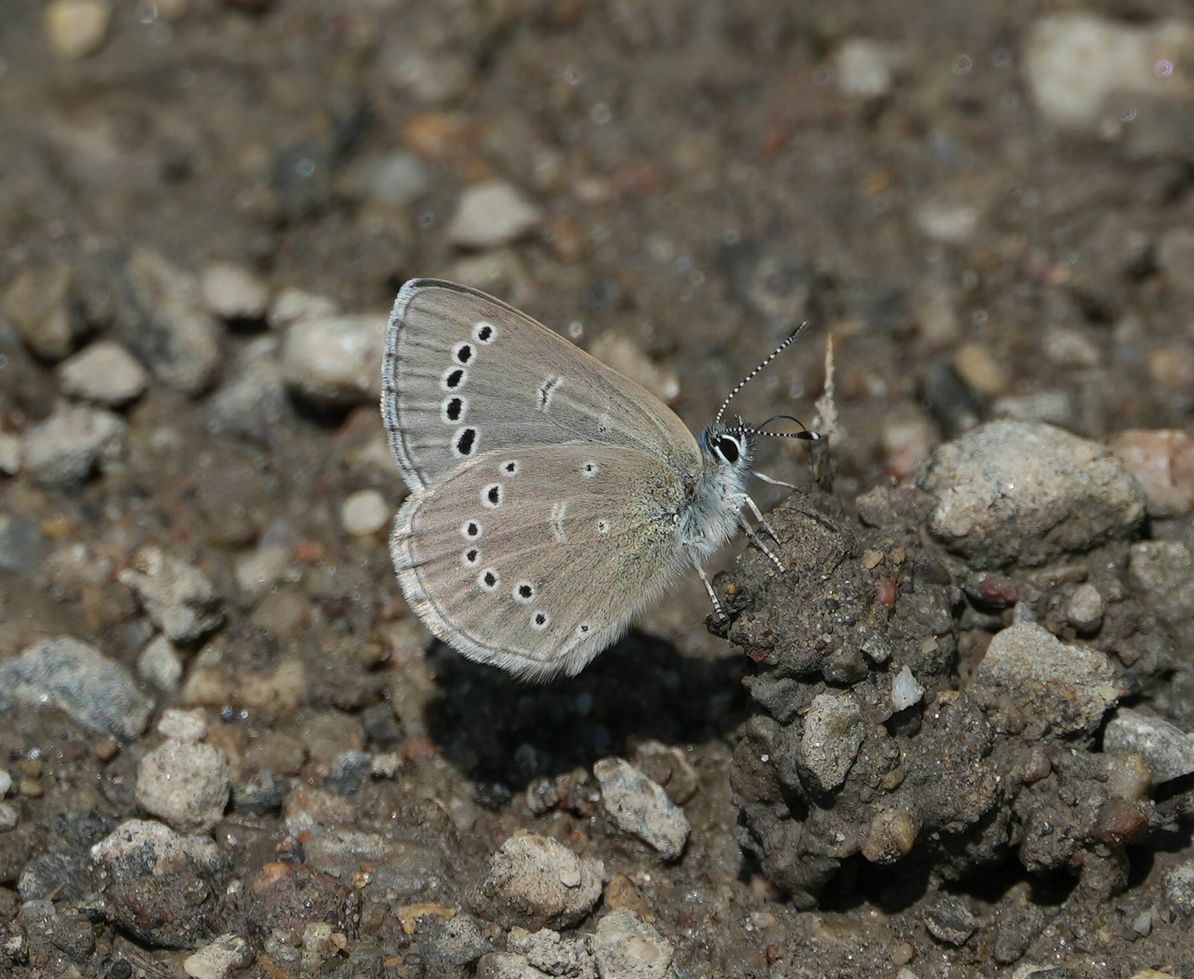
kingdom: Animalia
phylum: Arthropoda
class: Insecta
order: Lepidoptera
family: Lycaenidae
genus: Glaucopsyche
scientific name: Glaucopsyche lygdamus
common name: Silvery blue
